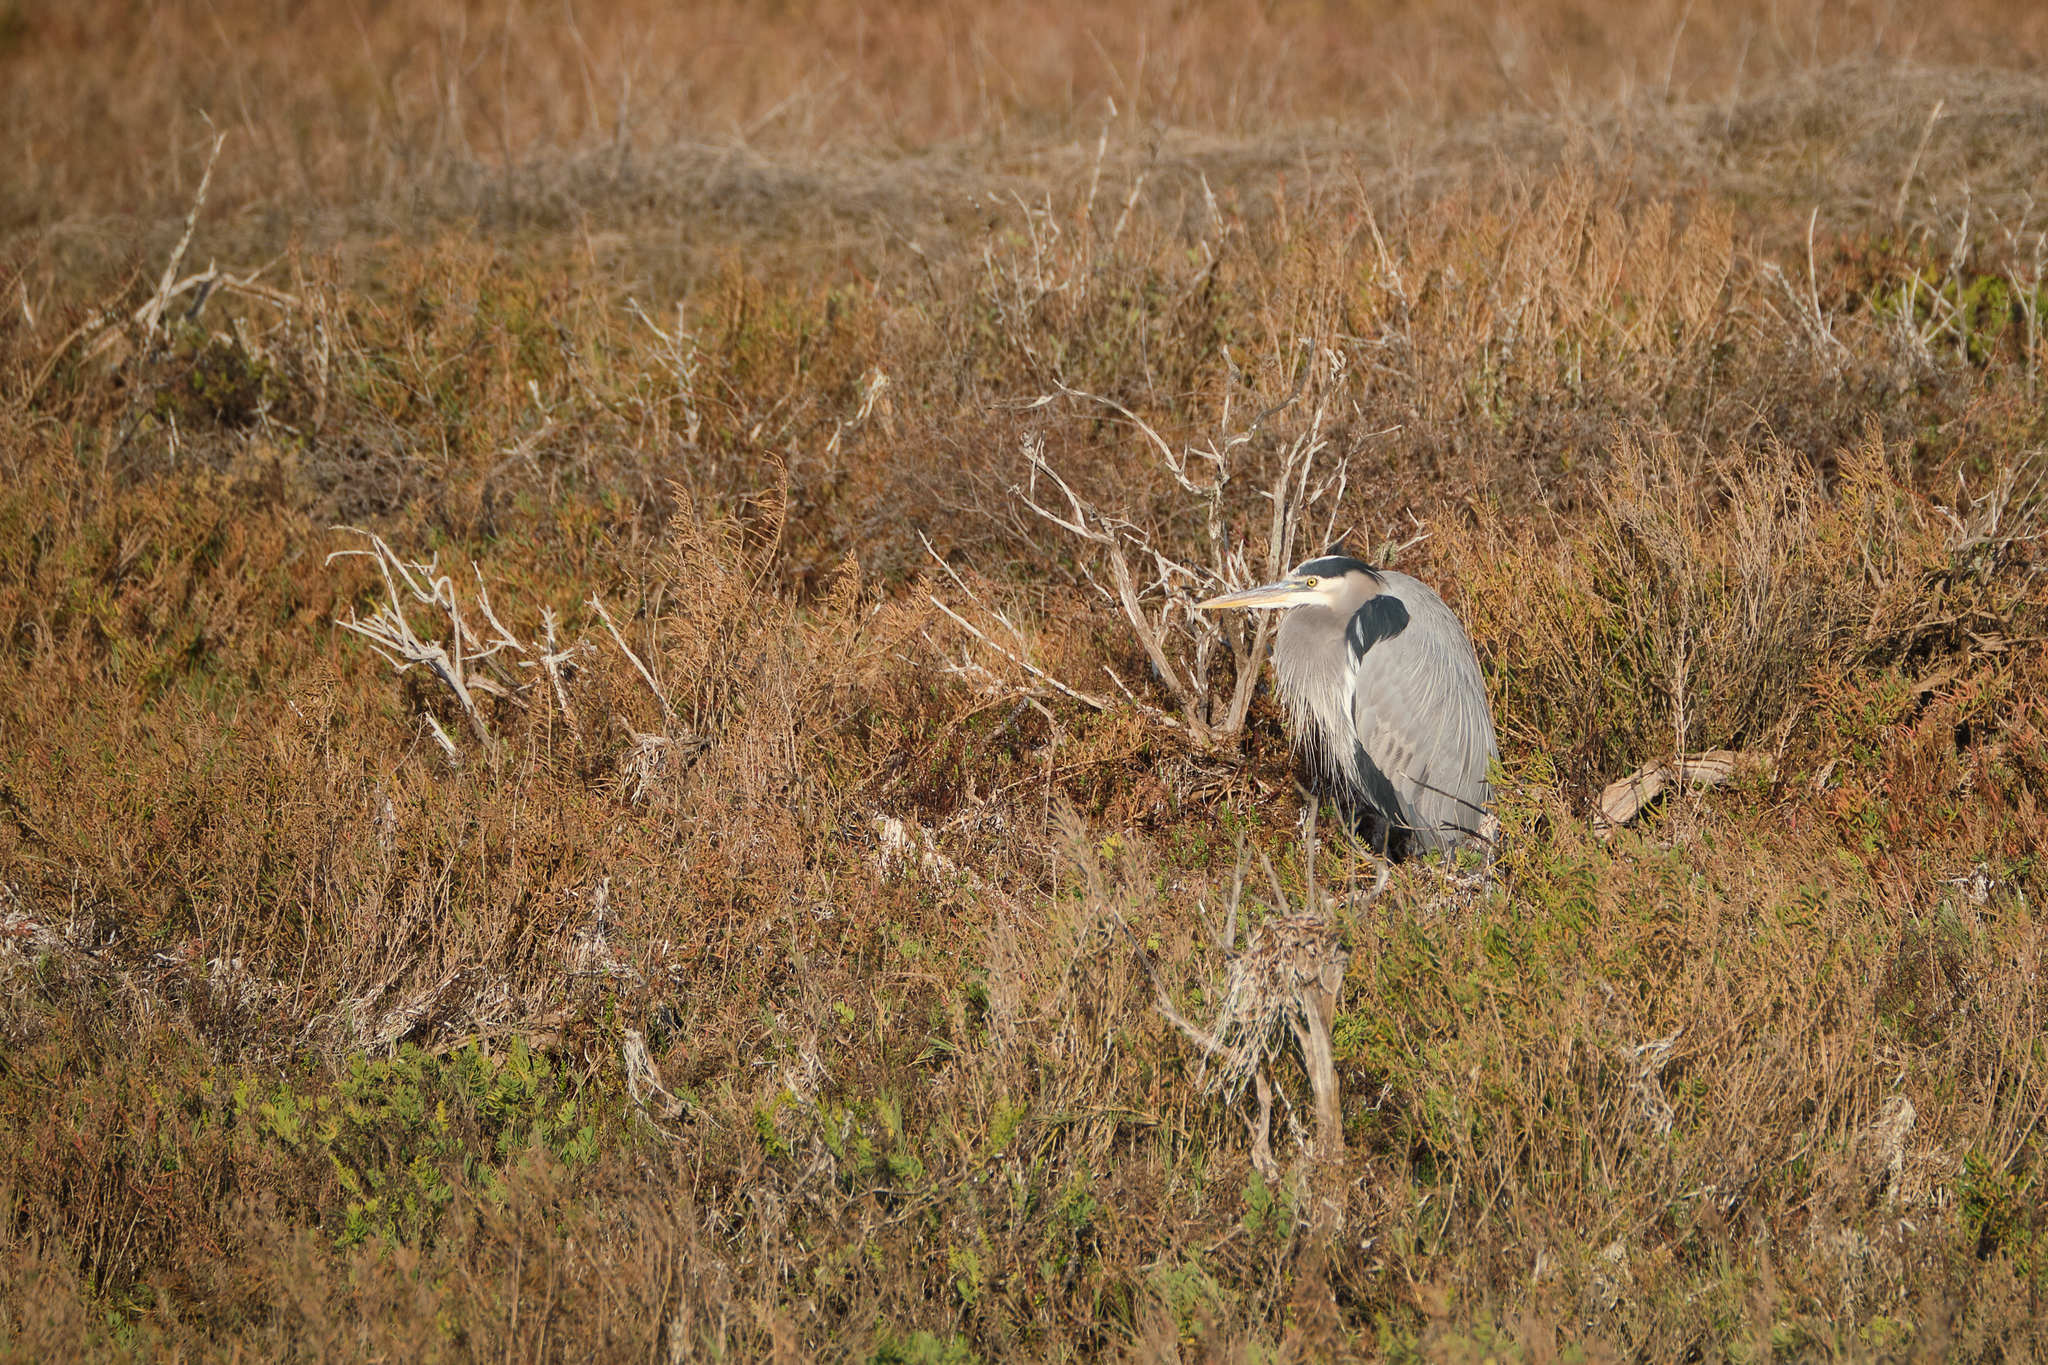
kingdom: Animalia
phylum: Chordata
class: Aves
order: Pelecaniformes
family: Ardeidae
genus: Ardea
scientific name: Ardea herodias
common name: Great blue heron
